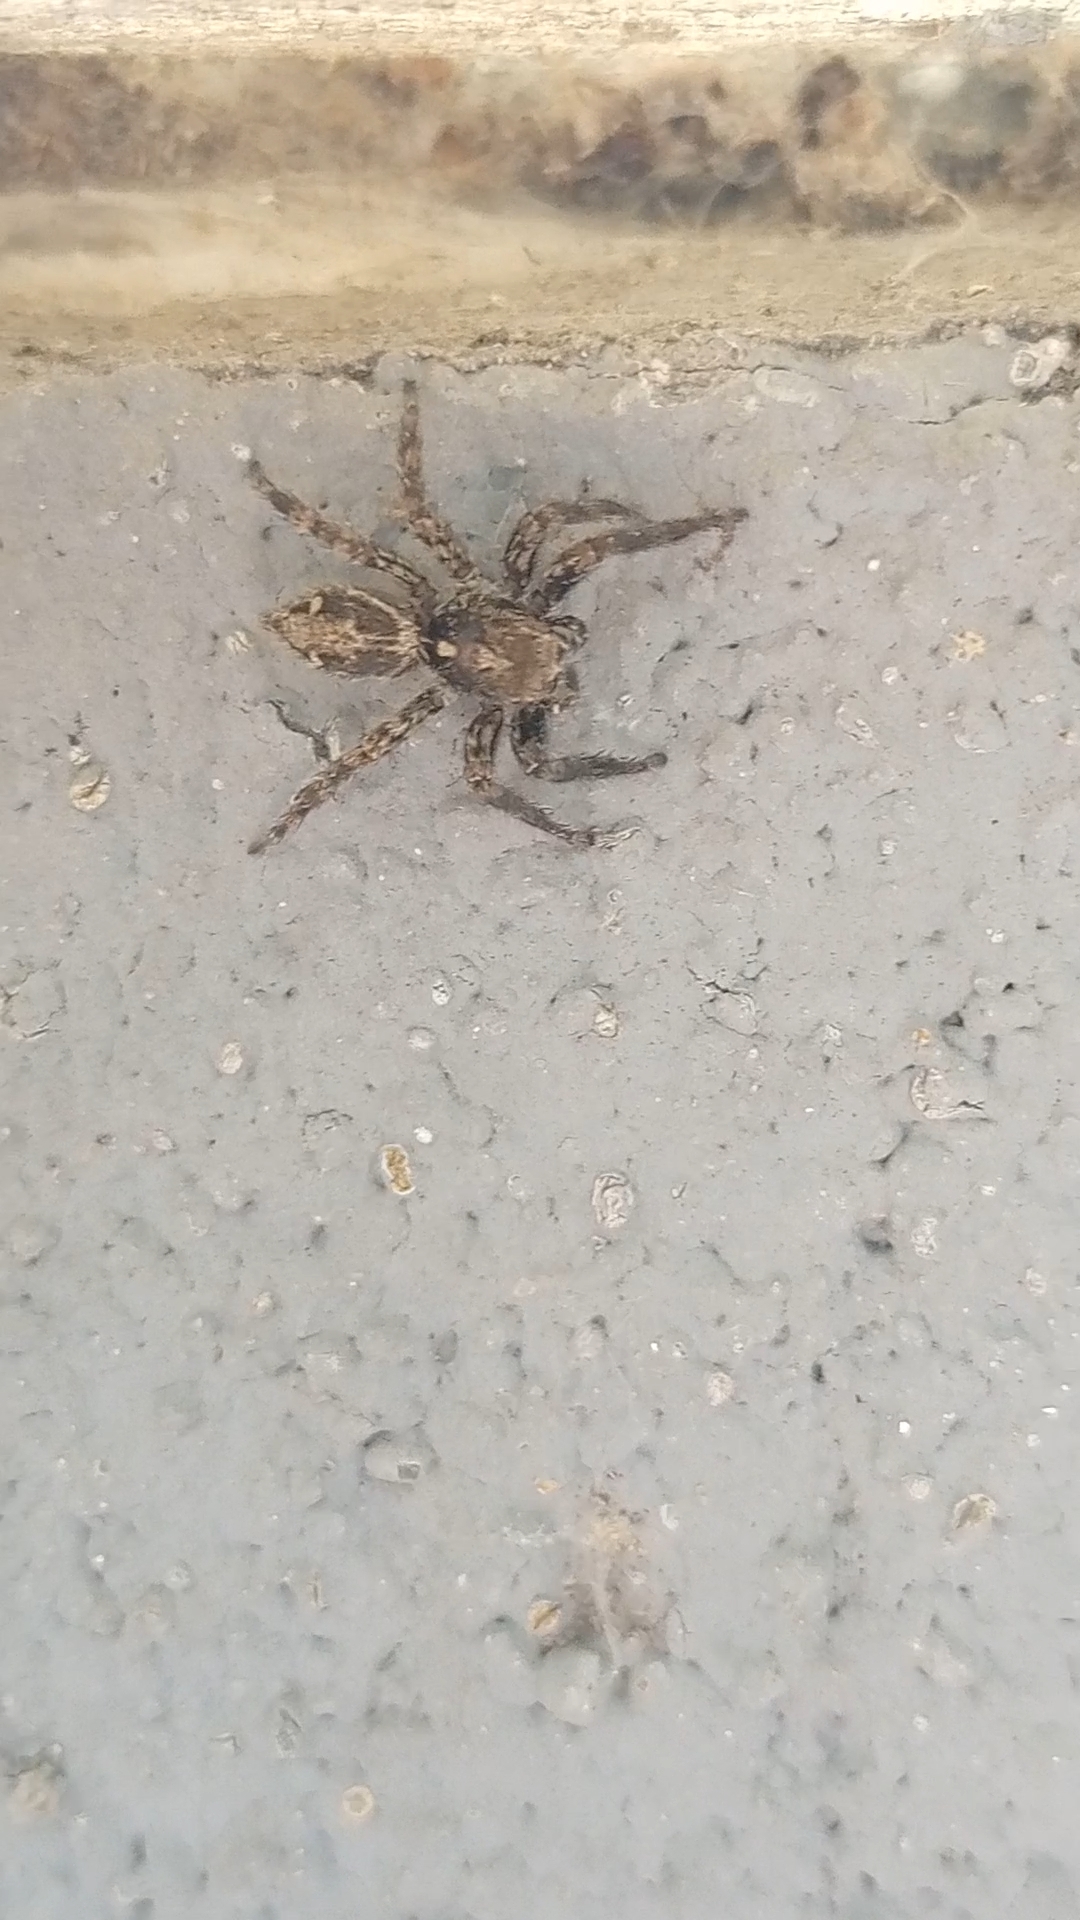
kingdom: Animalia
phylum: Arthropoda
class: Arachnida
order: Araneae
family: Salticidae
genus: Plexippus
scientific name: Plexippus paykulli
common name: Pantropical jumper
